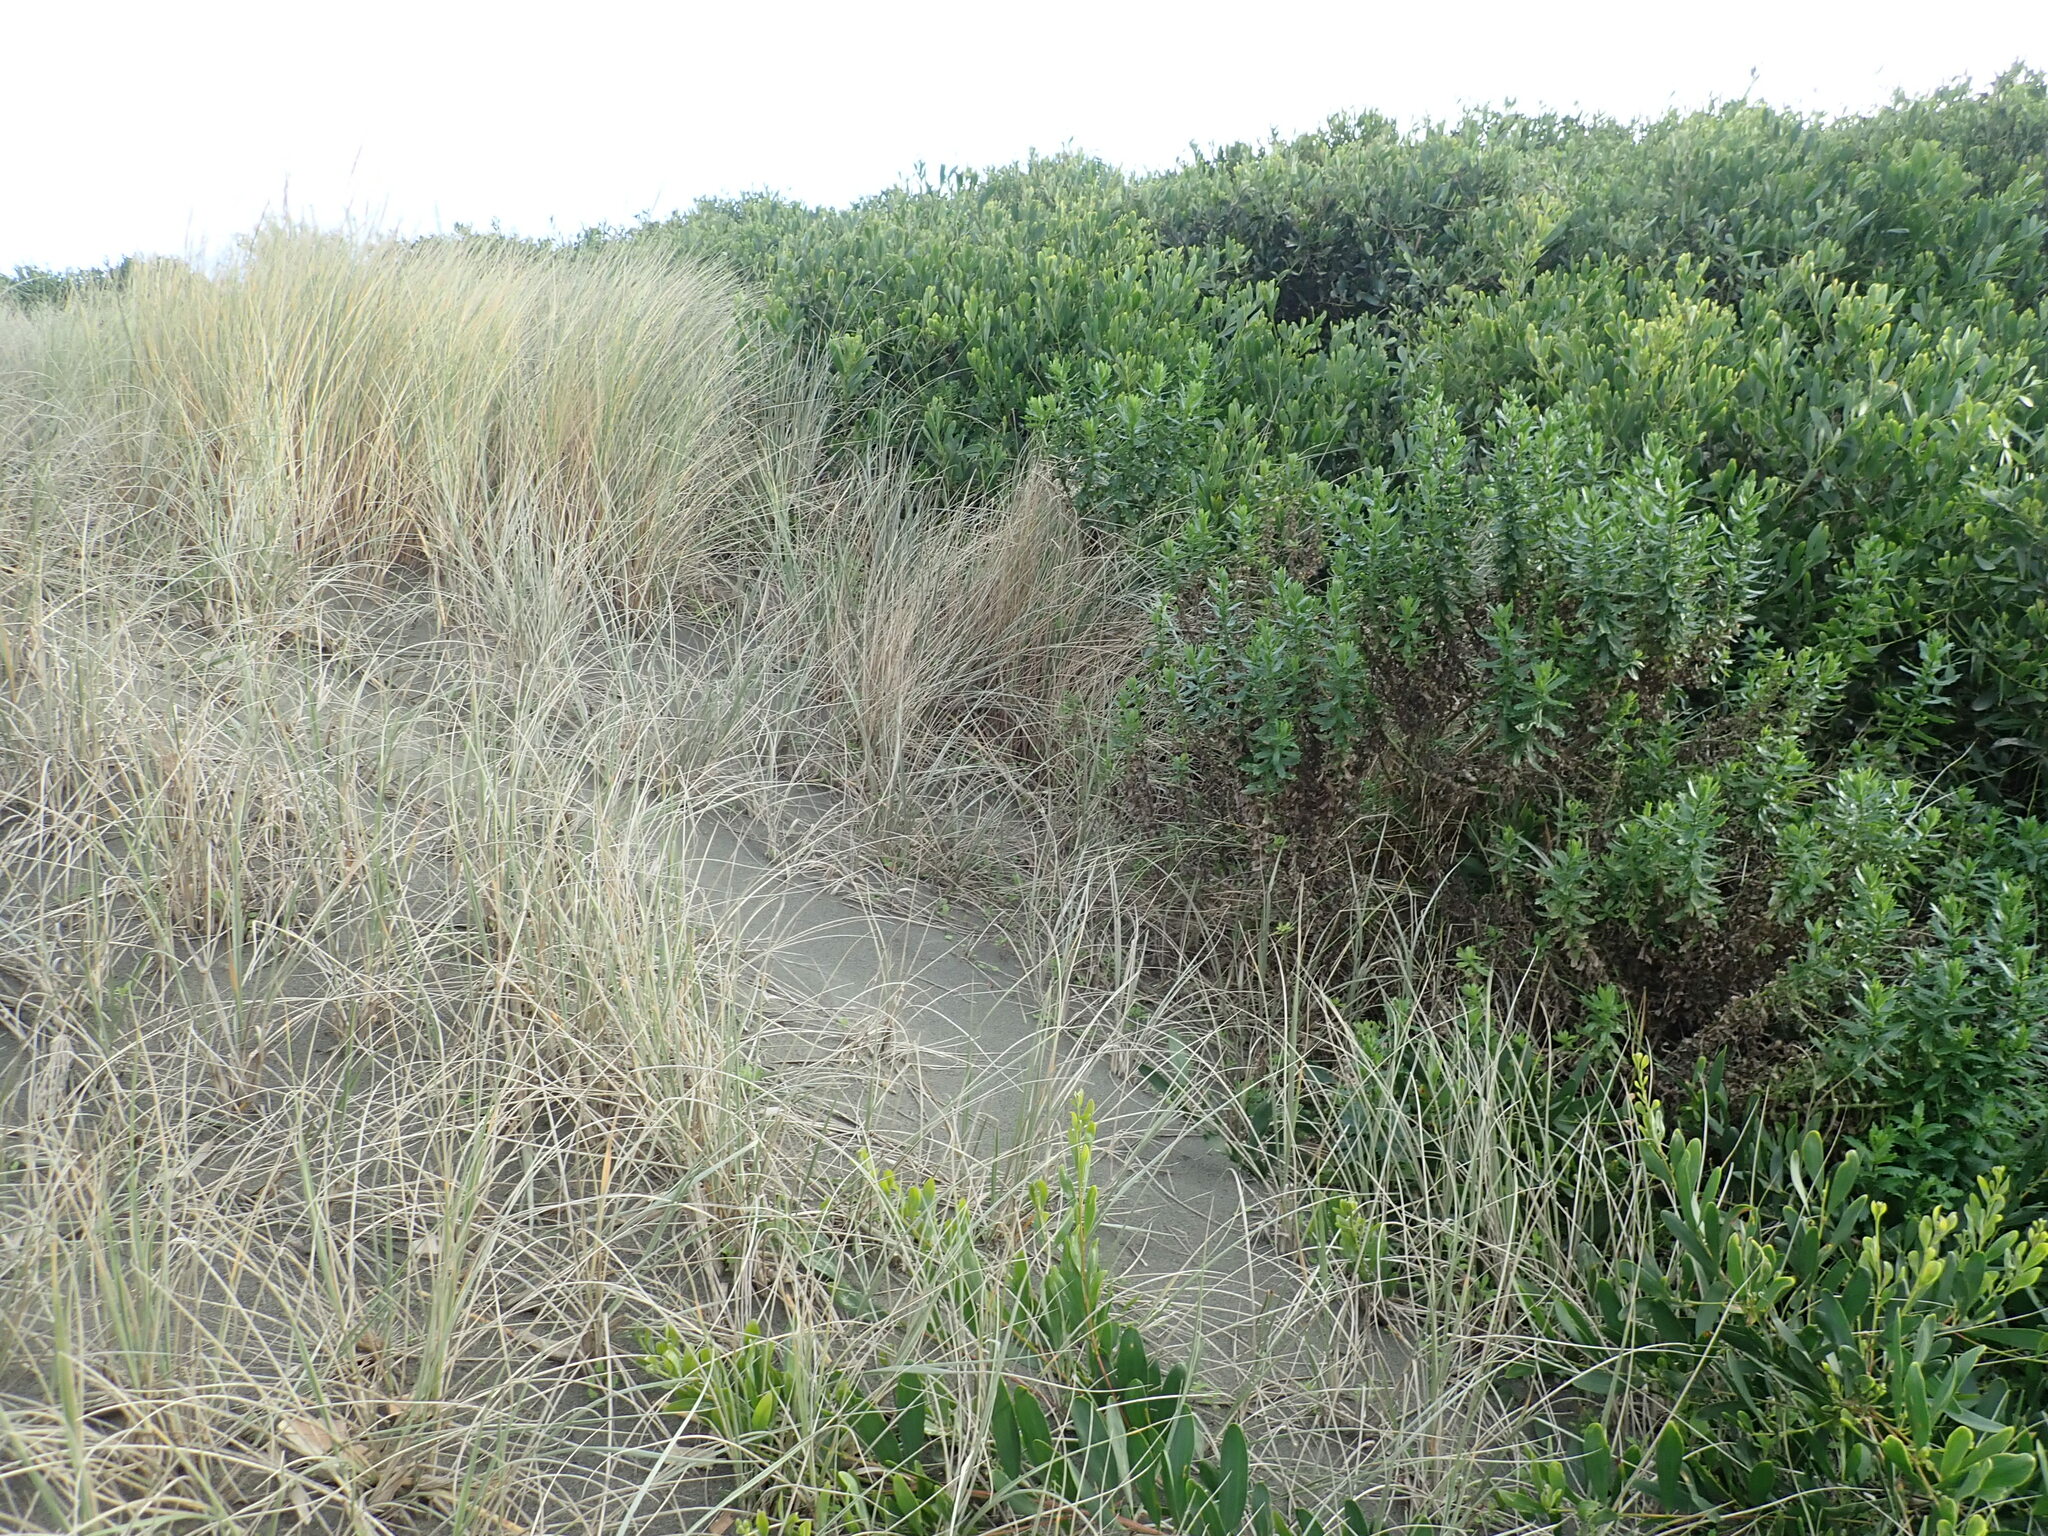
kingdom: Plantae
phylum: Tracheophyta
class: Magnoliopsida
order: Fabales
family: Fabaceae
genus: Acacia
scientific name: Acacia longifolia
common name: Sydney golden wattle
